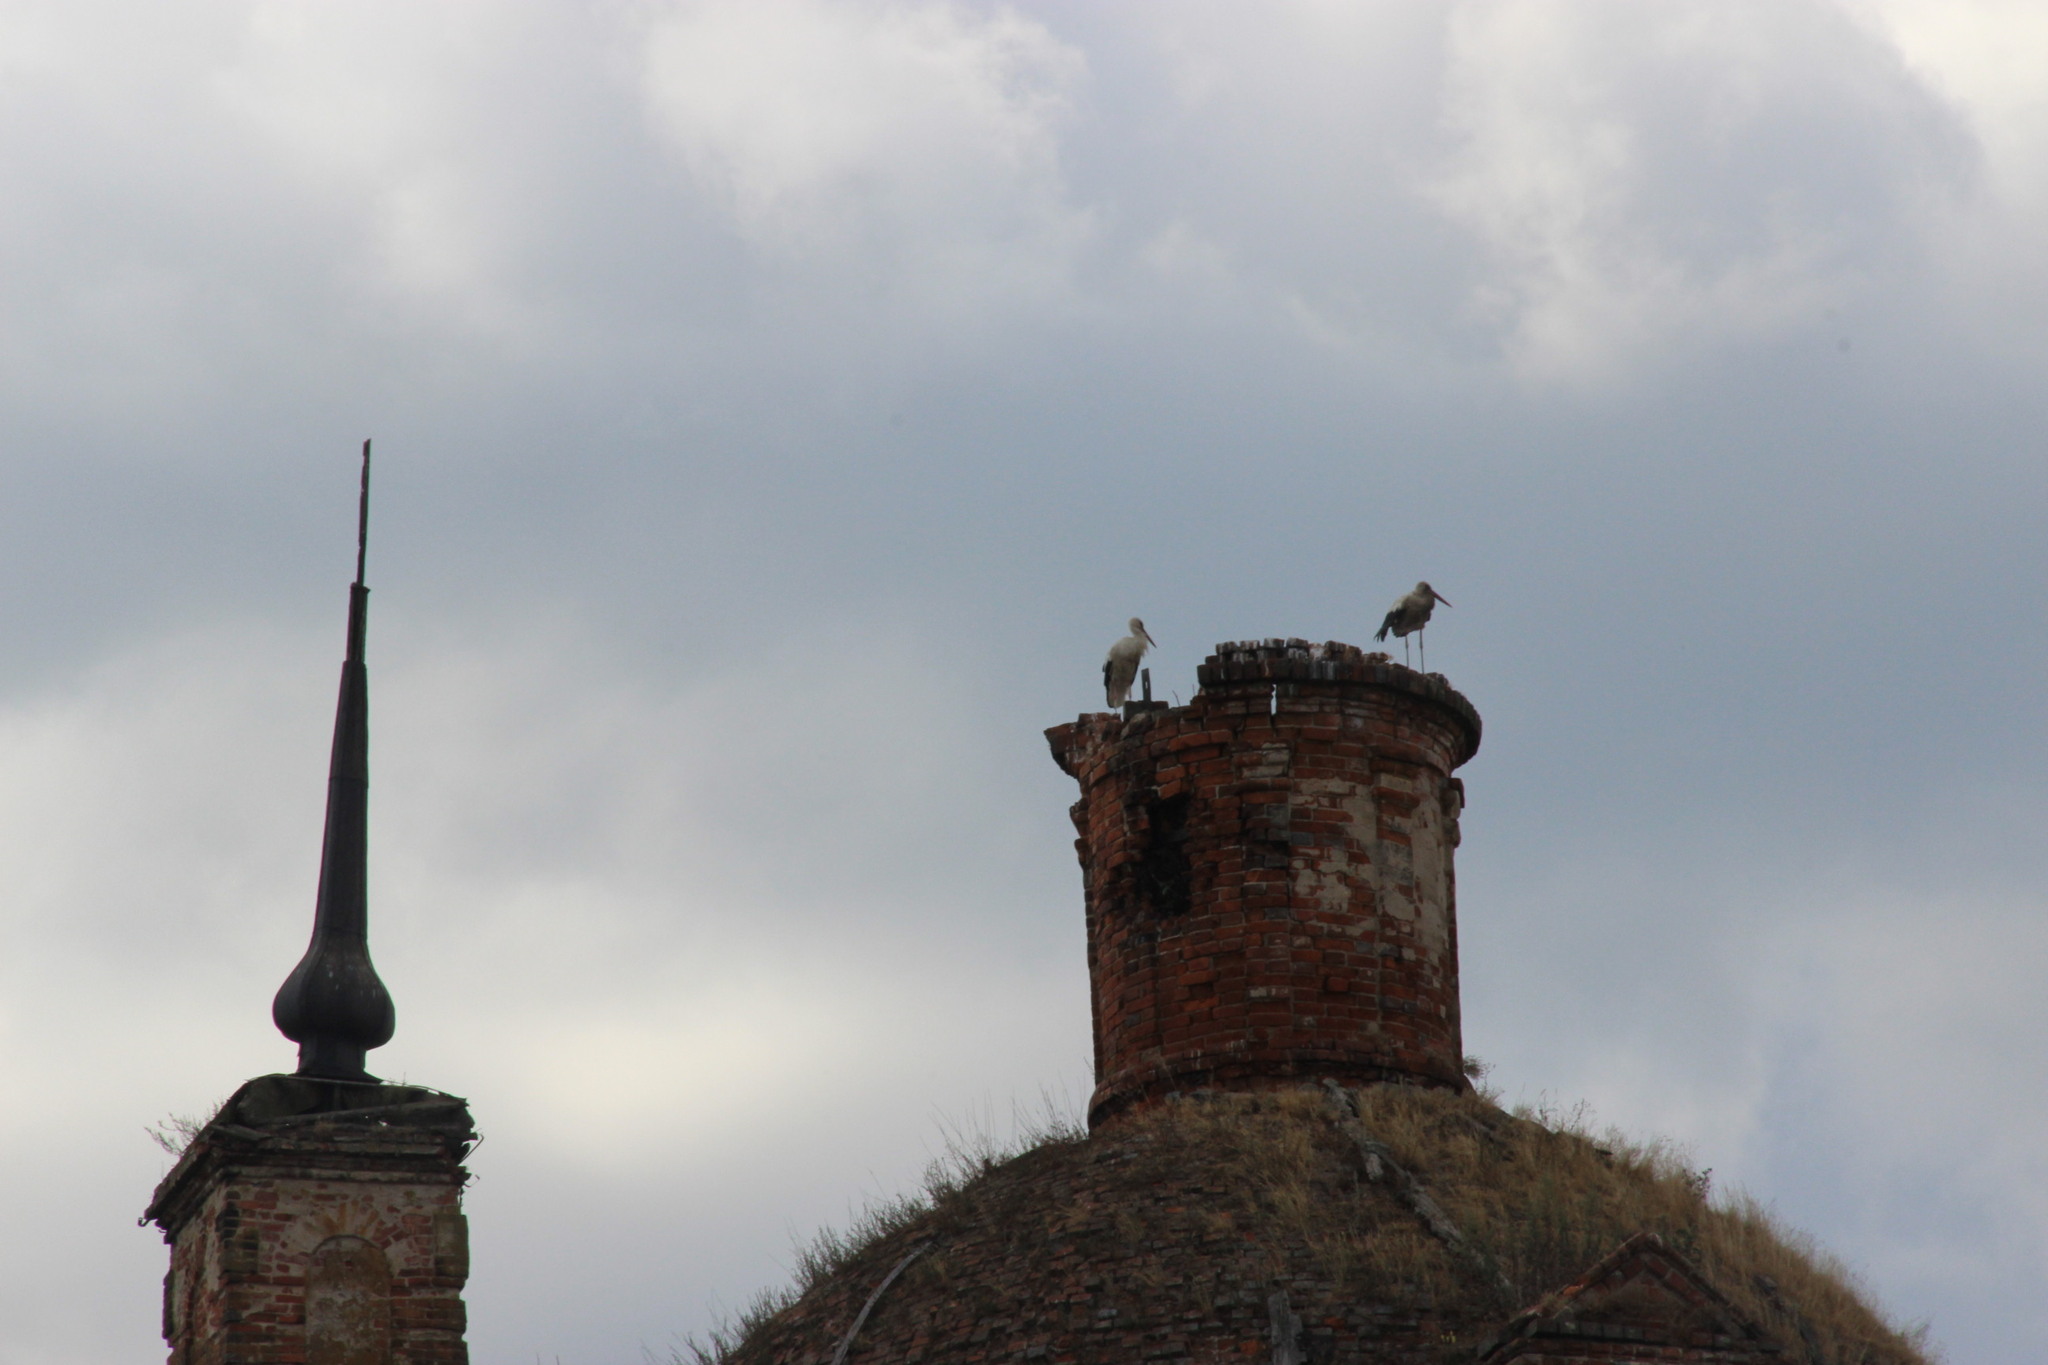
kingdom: Animalia
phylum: Chordata
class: Aves
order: Ciconiiformes
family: Ciconiidae
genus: Ciconia
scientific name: Ciconia ciconia
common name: White stork
